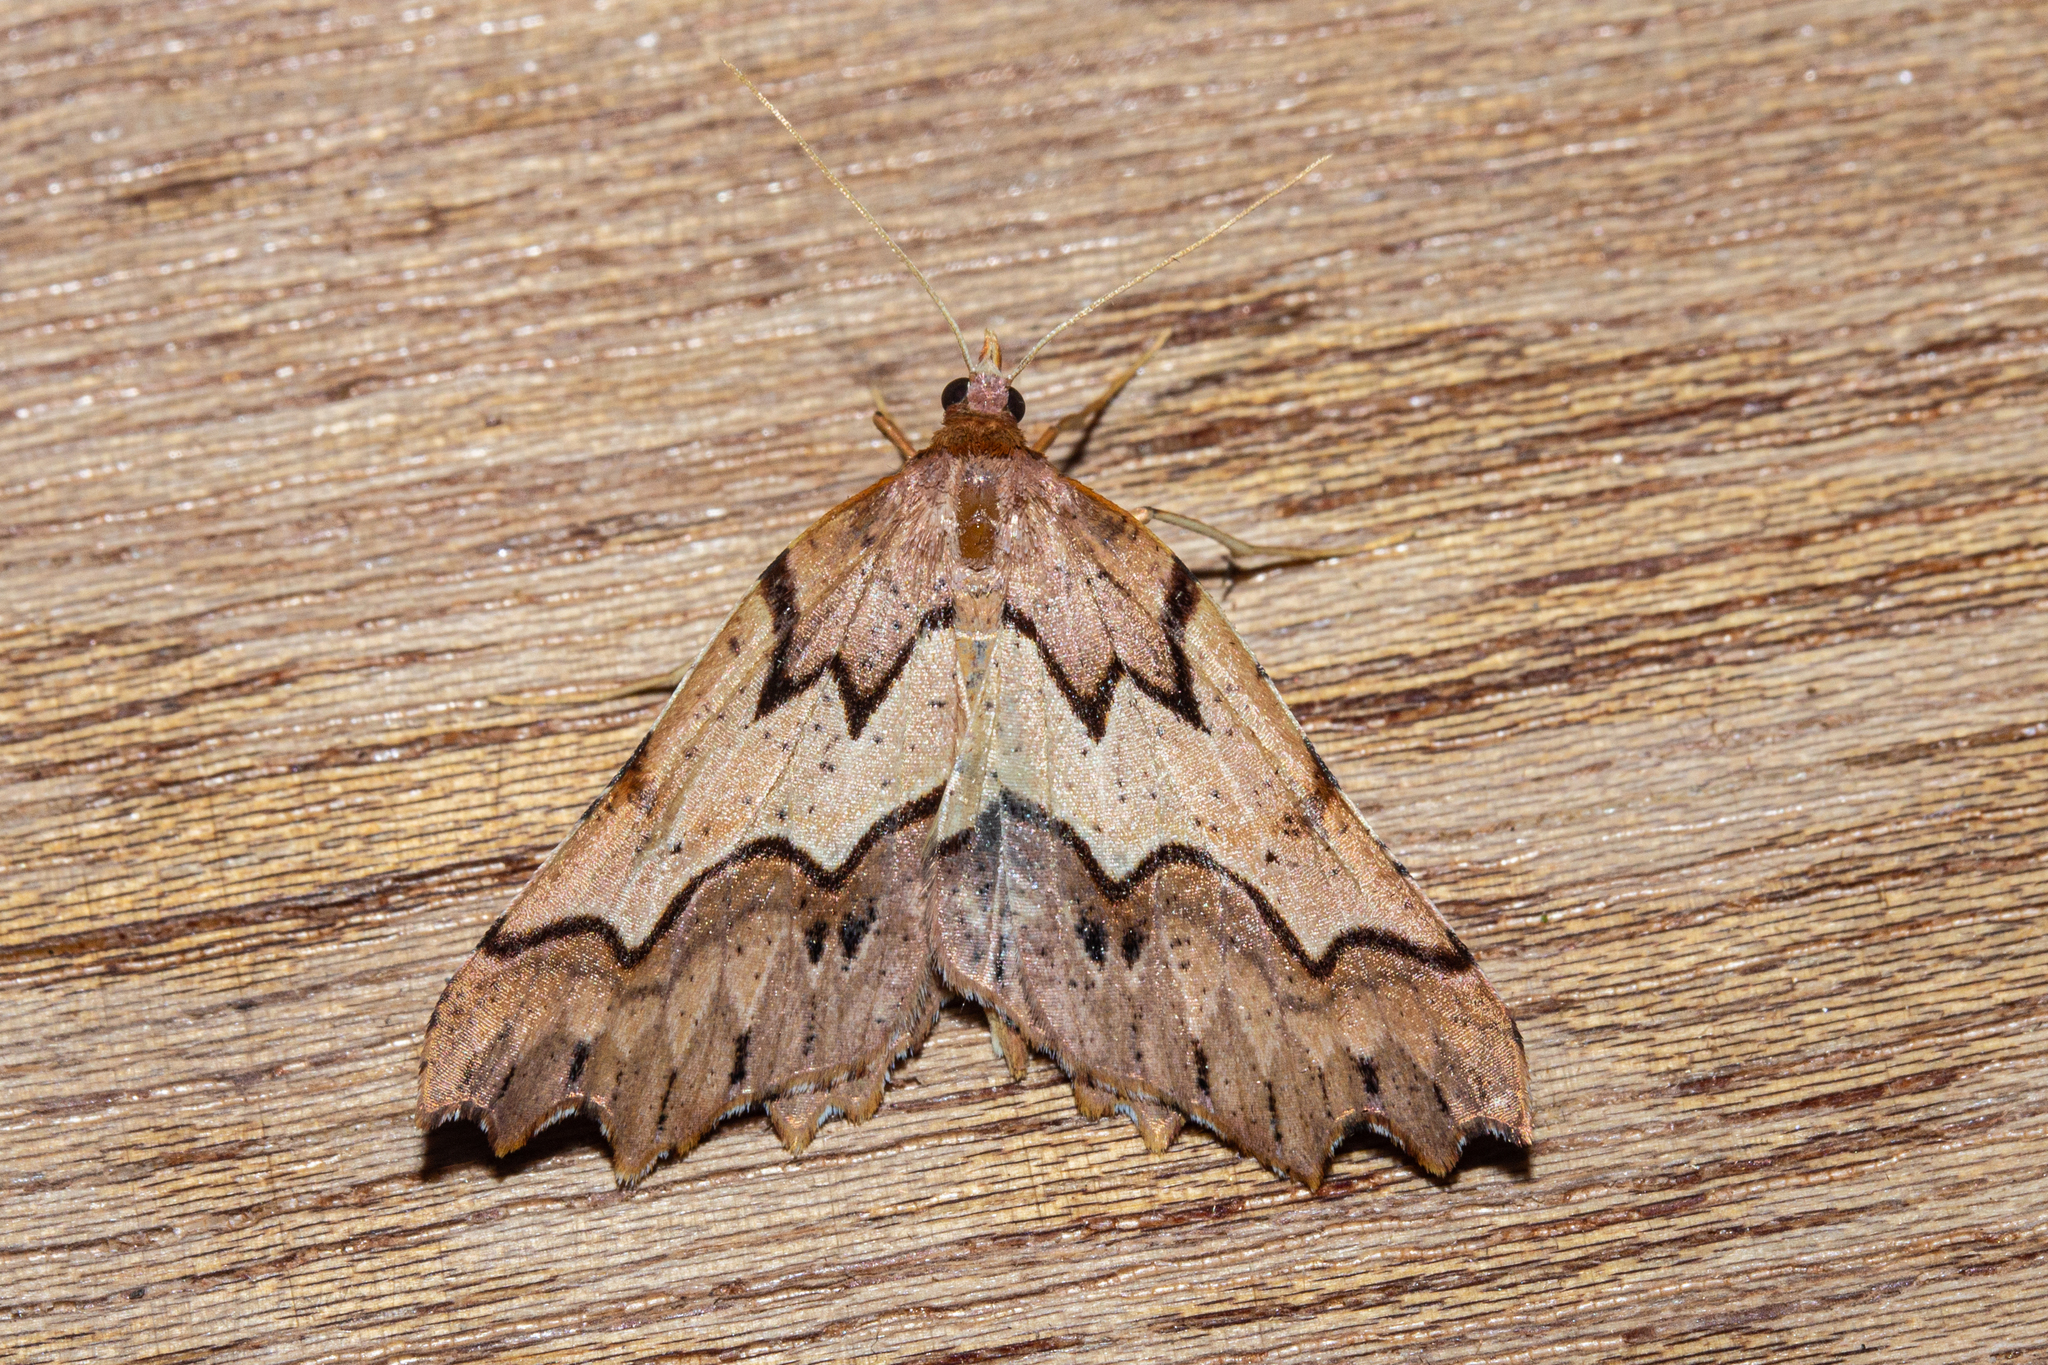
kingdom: Animalia
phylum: Arthropoda
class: Insecta
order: Lepidoptera
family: Geometridae
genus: Ischalis
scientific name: Ischalis fortinata
